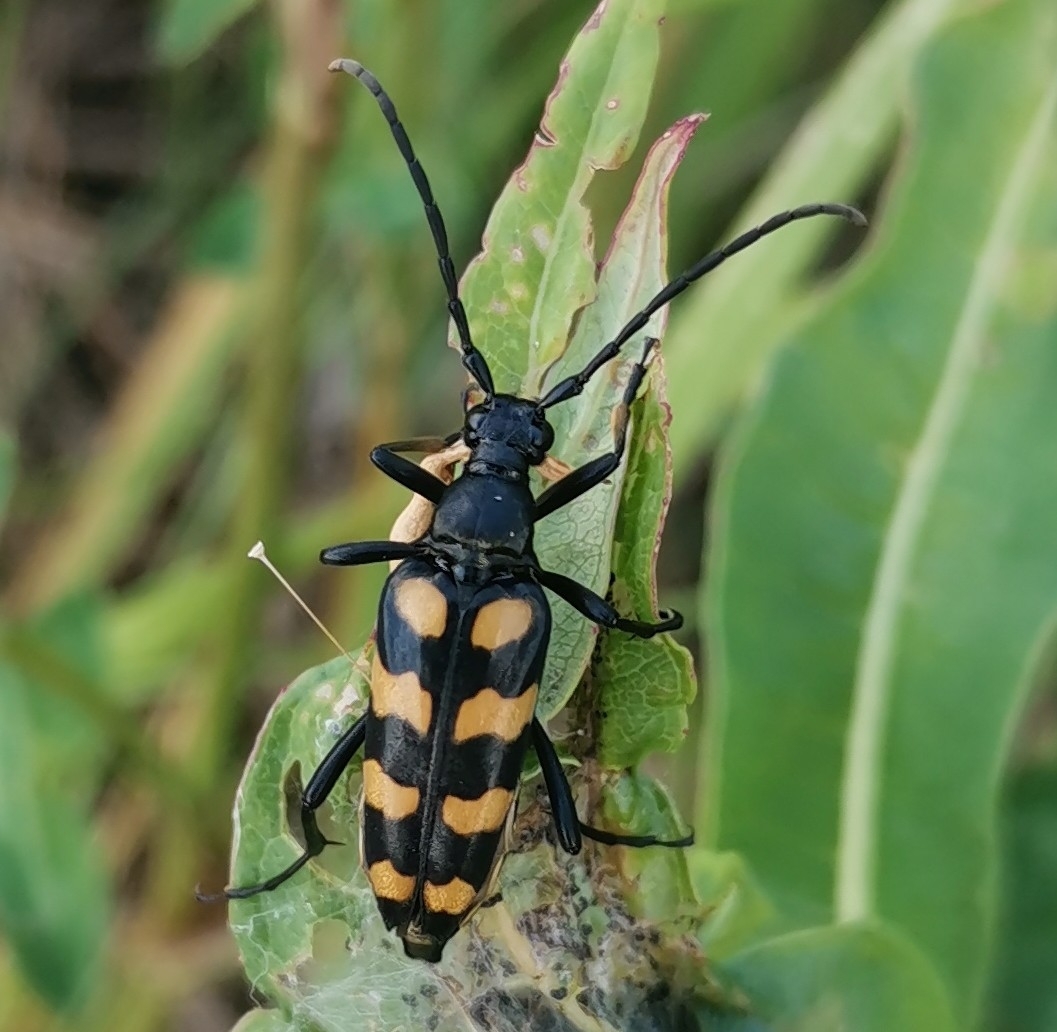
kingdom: Animalia
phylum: Arthropoda
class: Insecta
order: Coleoptera
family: Cerambycidae
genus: Leptura
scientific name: Leptura quadrifasciata
